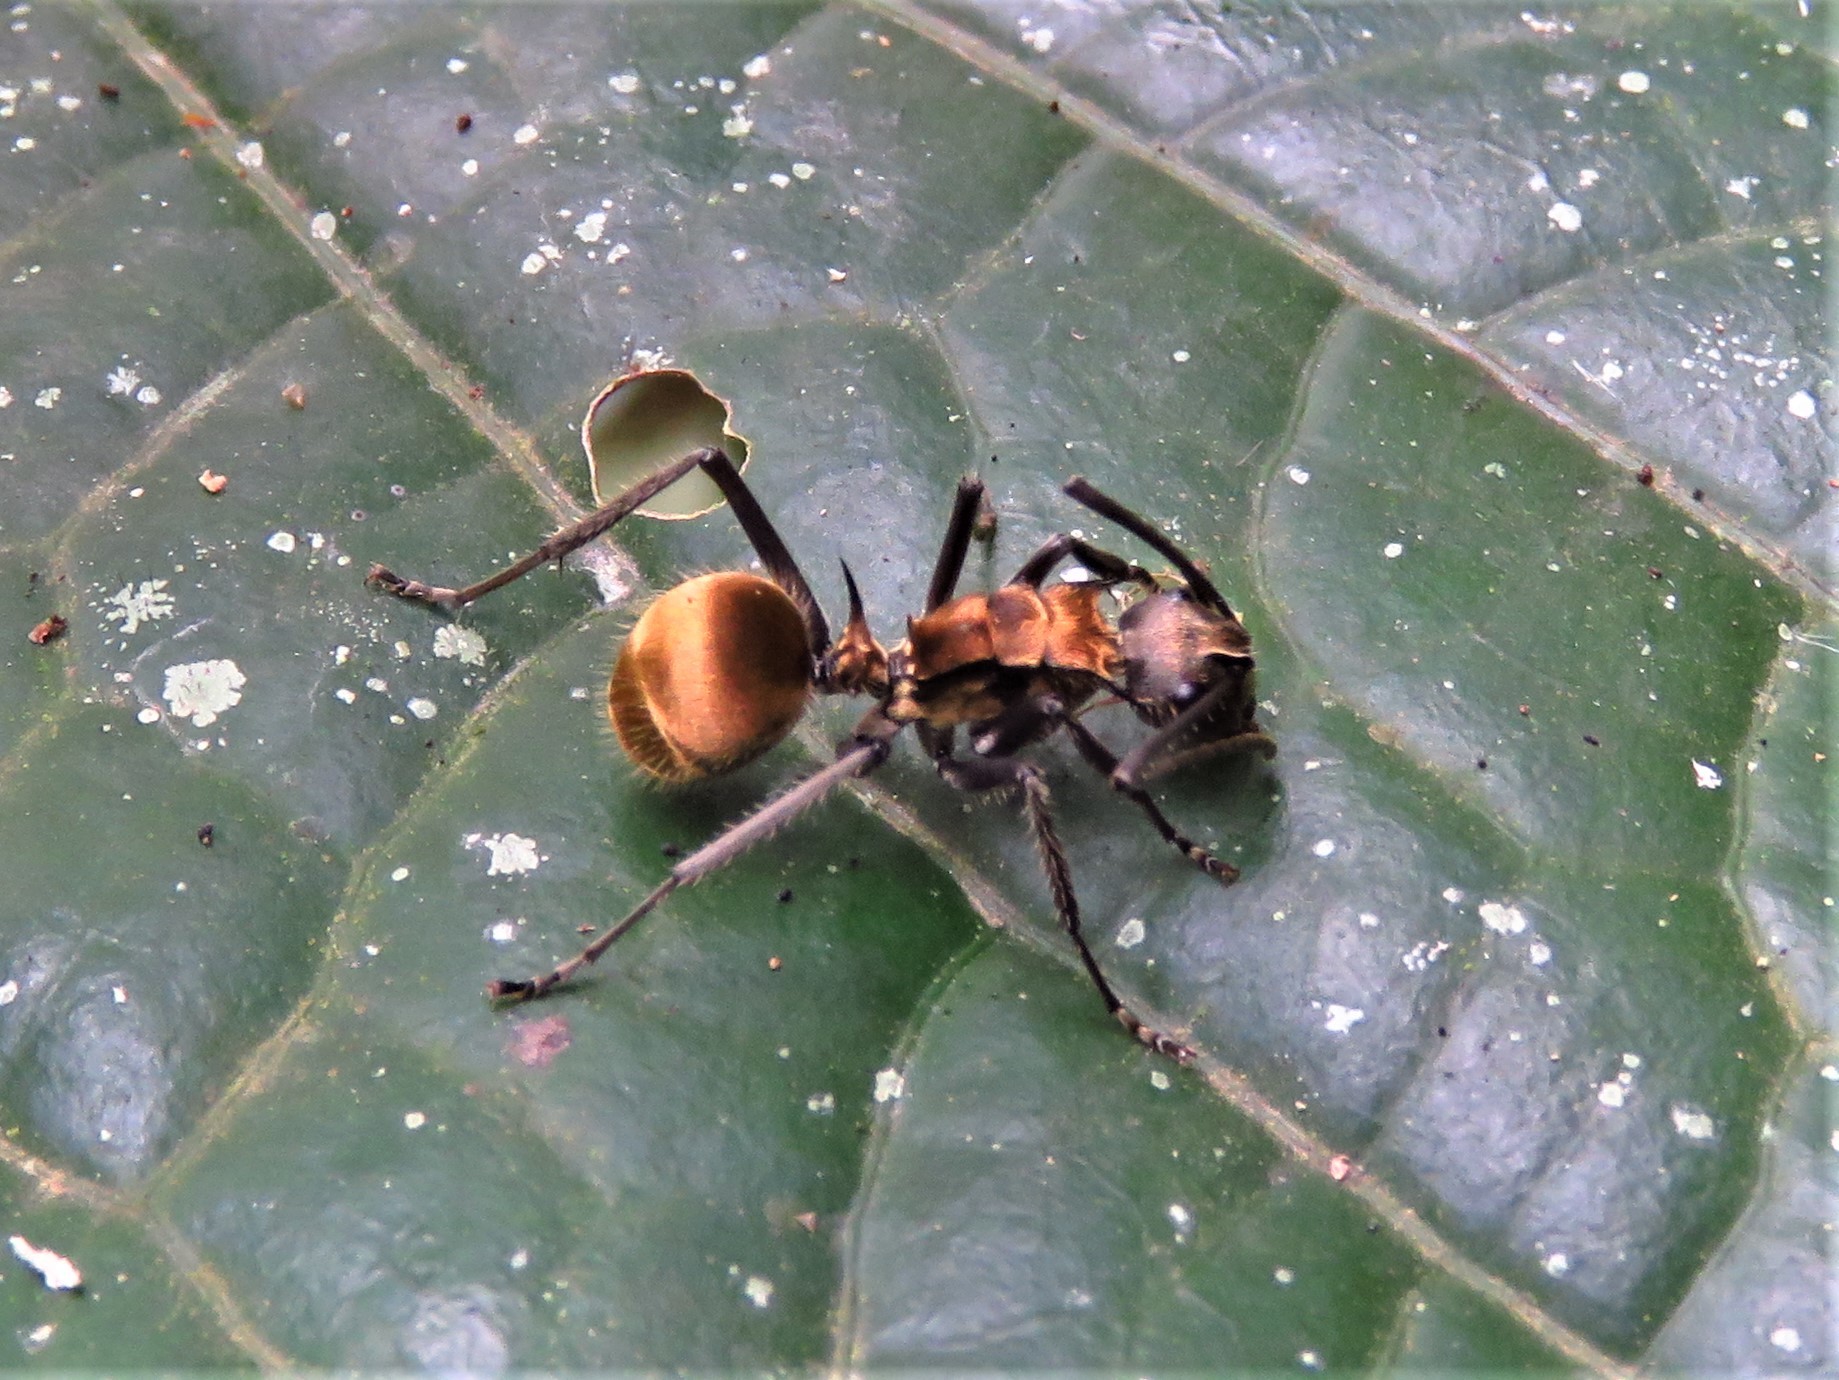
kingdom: Animalia
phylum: Arthropoda
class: Insecta
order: Hymenoptera
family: Formicidae
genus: Polyrhachis
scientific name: Polyrhachis militaris
